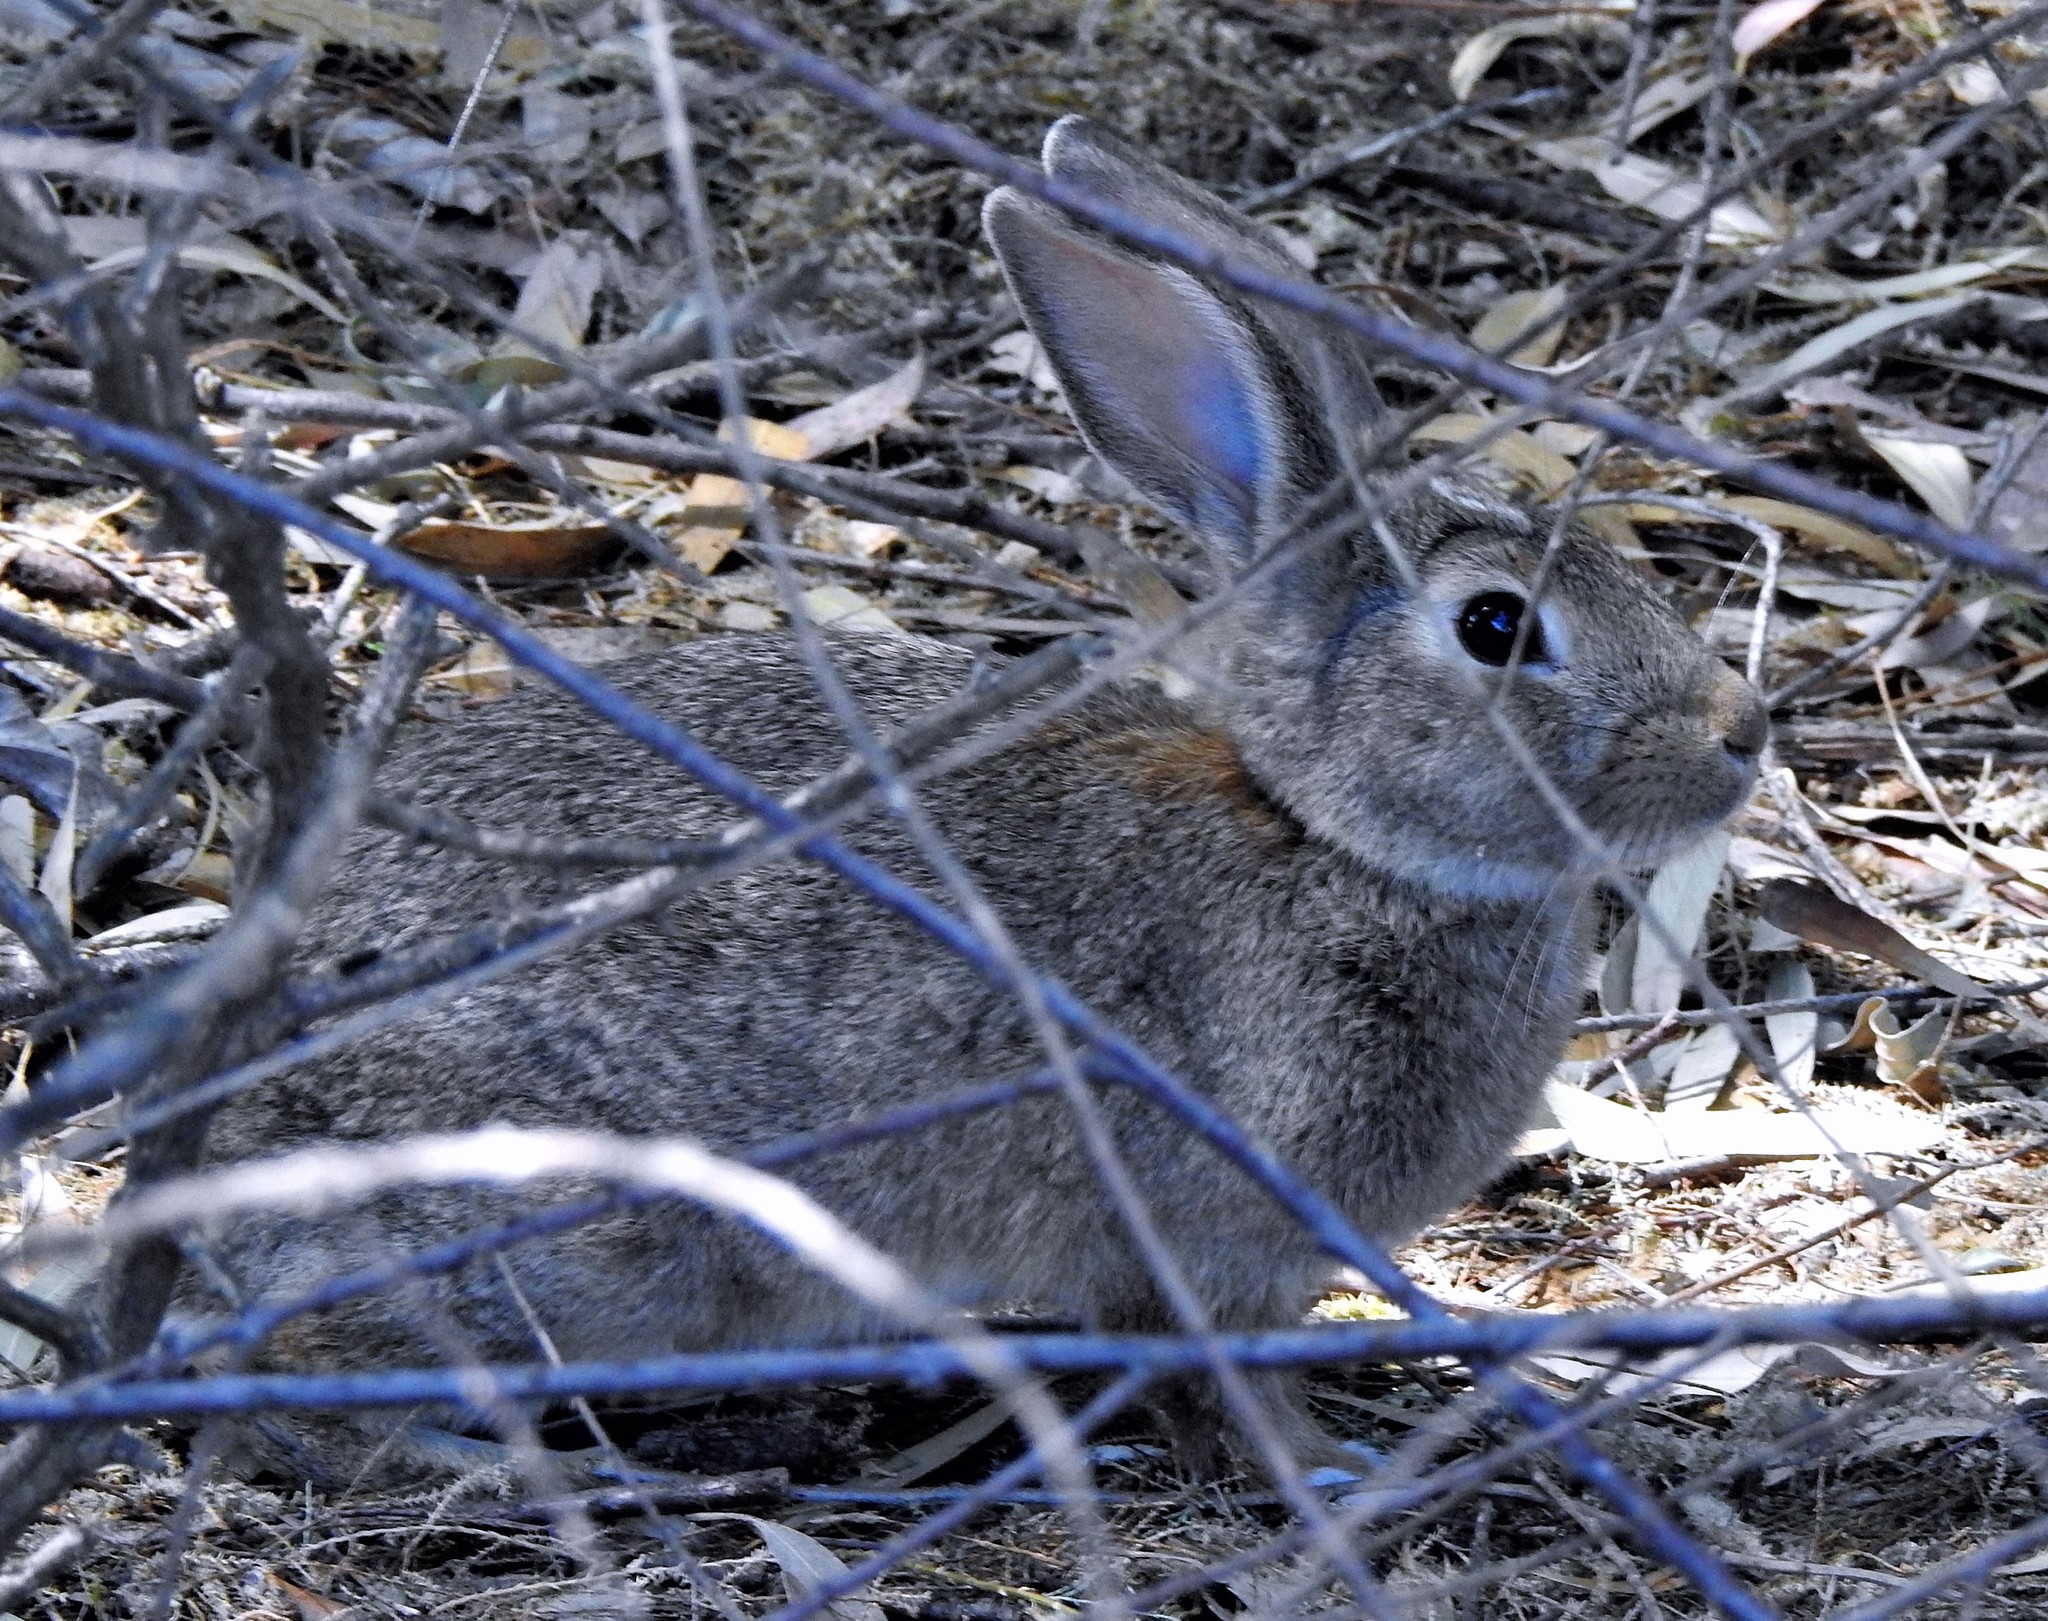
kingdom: Animalia
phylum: Chordata
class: Mammalia
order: Lagomorpha
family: Leporidae
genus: Oryctolagus
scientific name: Oryctolagus cuniculus
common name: European rabbit
